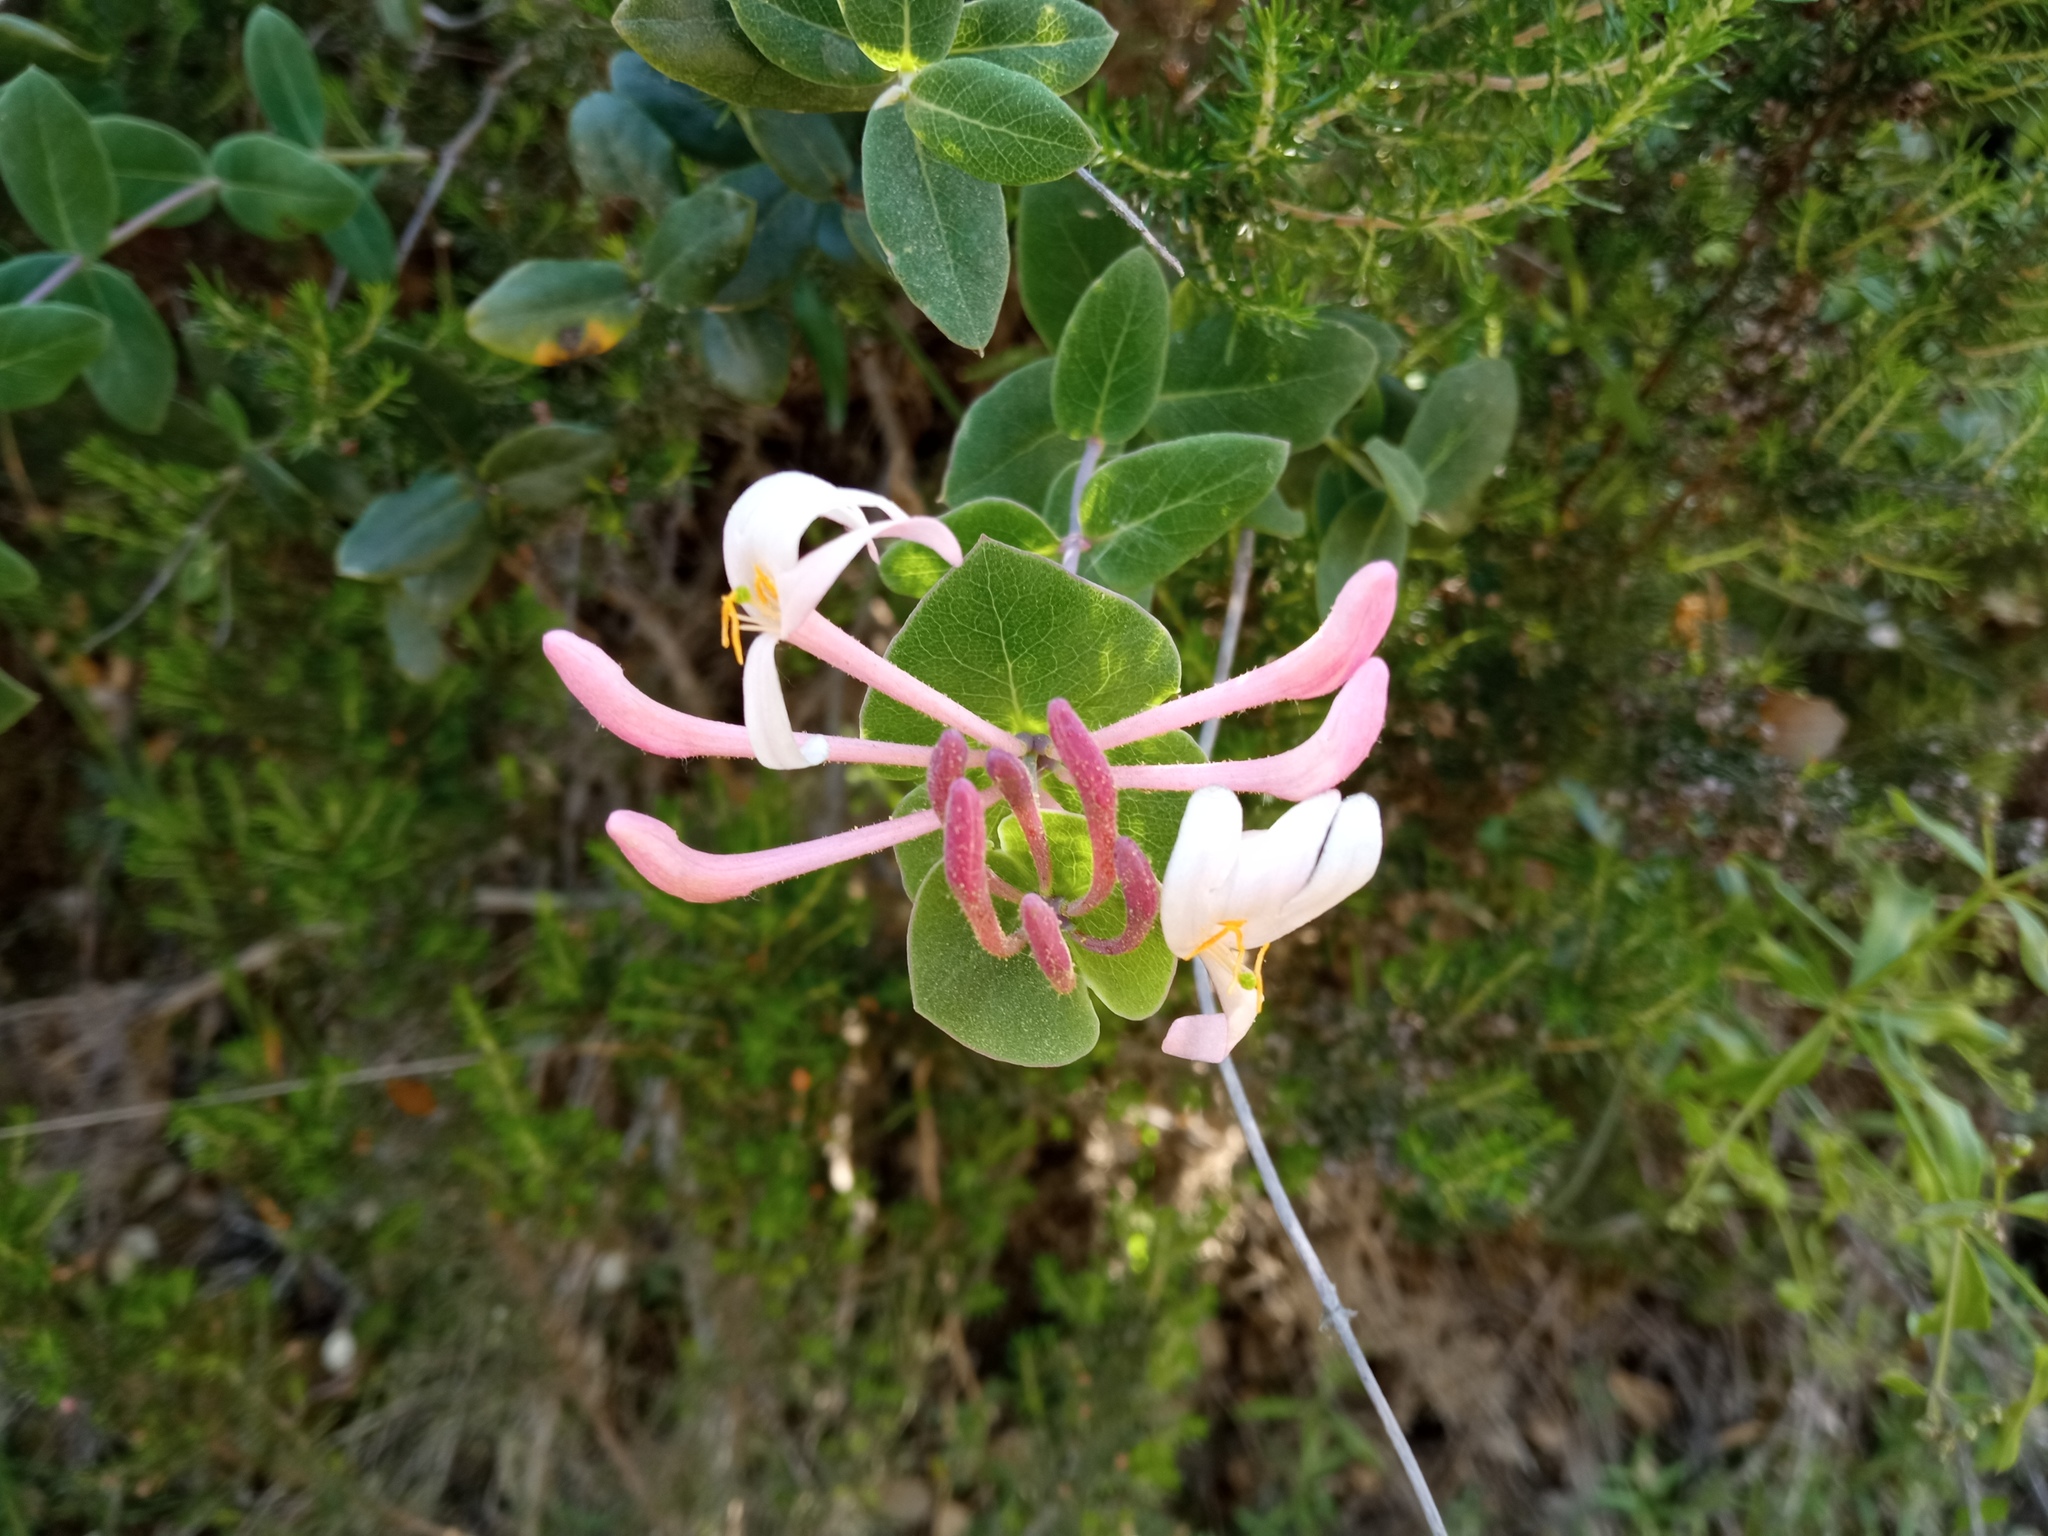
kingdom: Plantae
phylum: Tracheophyta
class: Magnoliopsida
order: Dipsacales
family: Caprifoliaceae
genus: Lonicera
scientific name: Lonicera implexa
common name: Minorca honeysuckle
